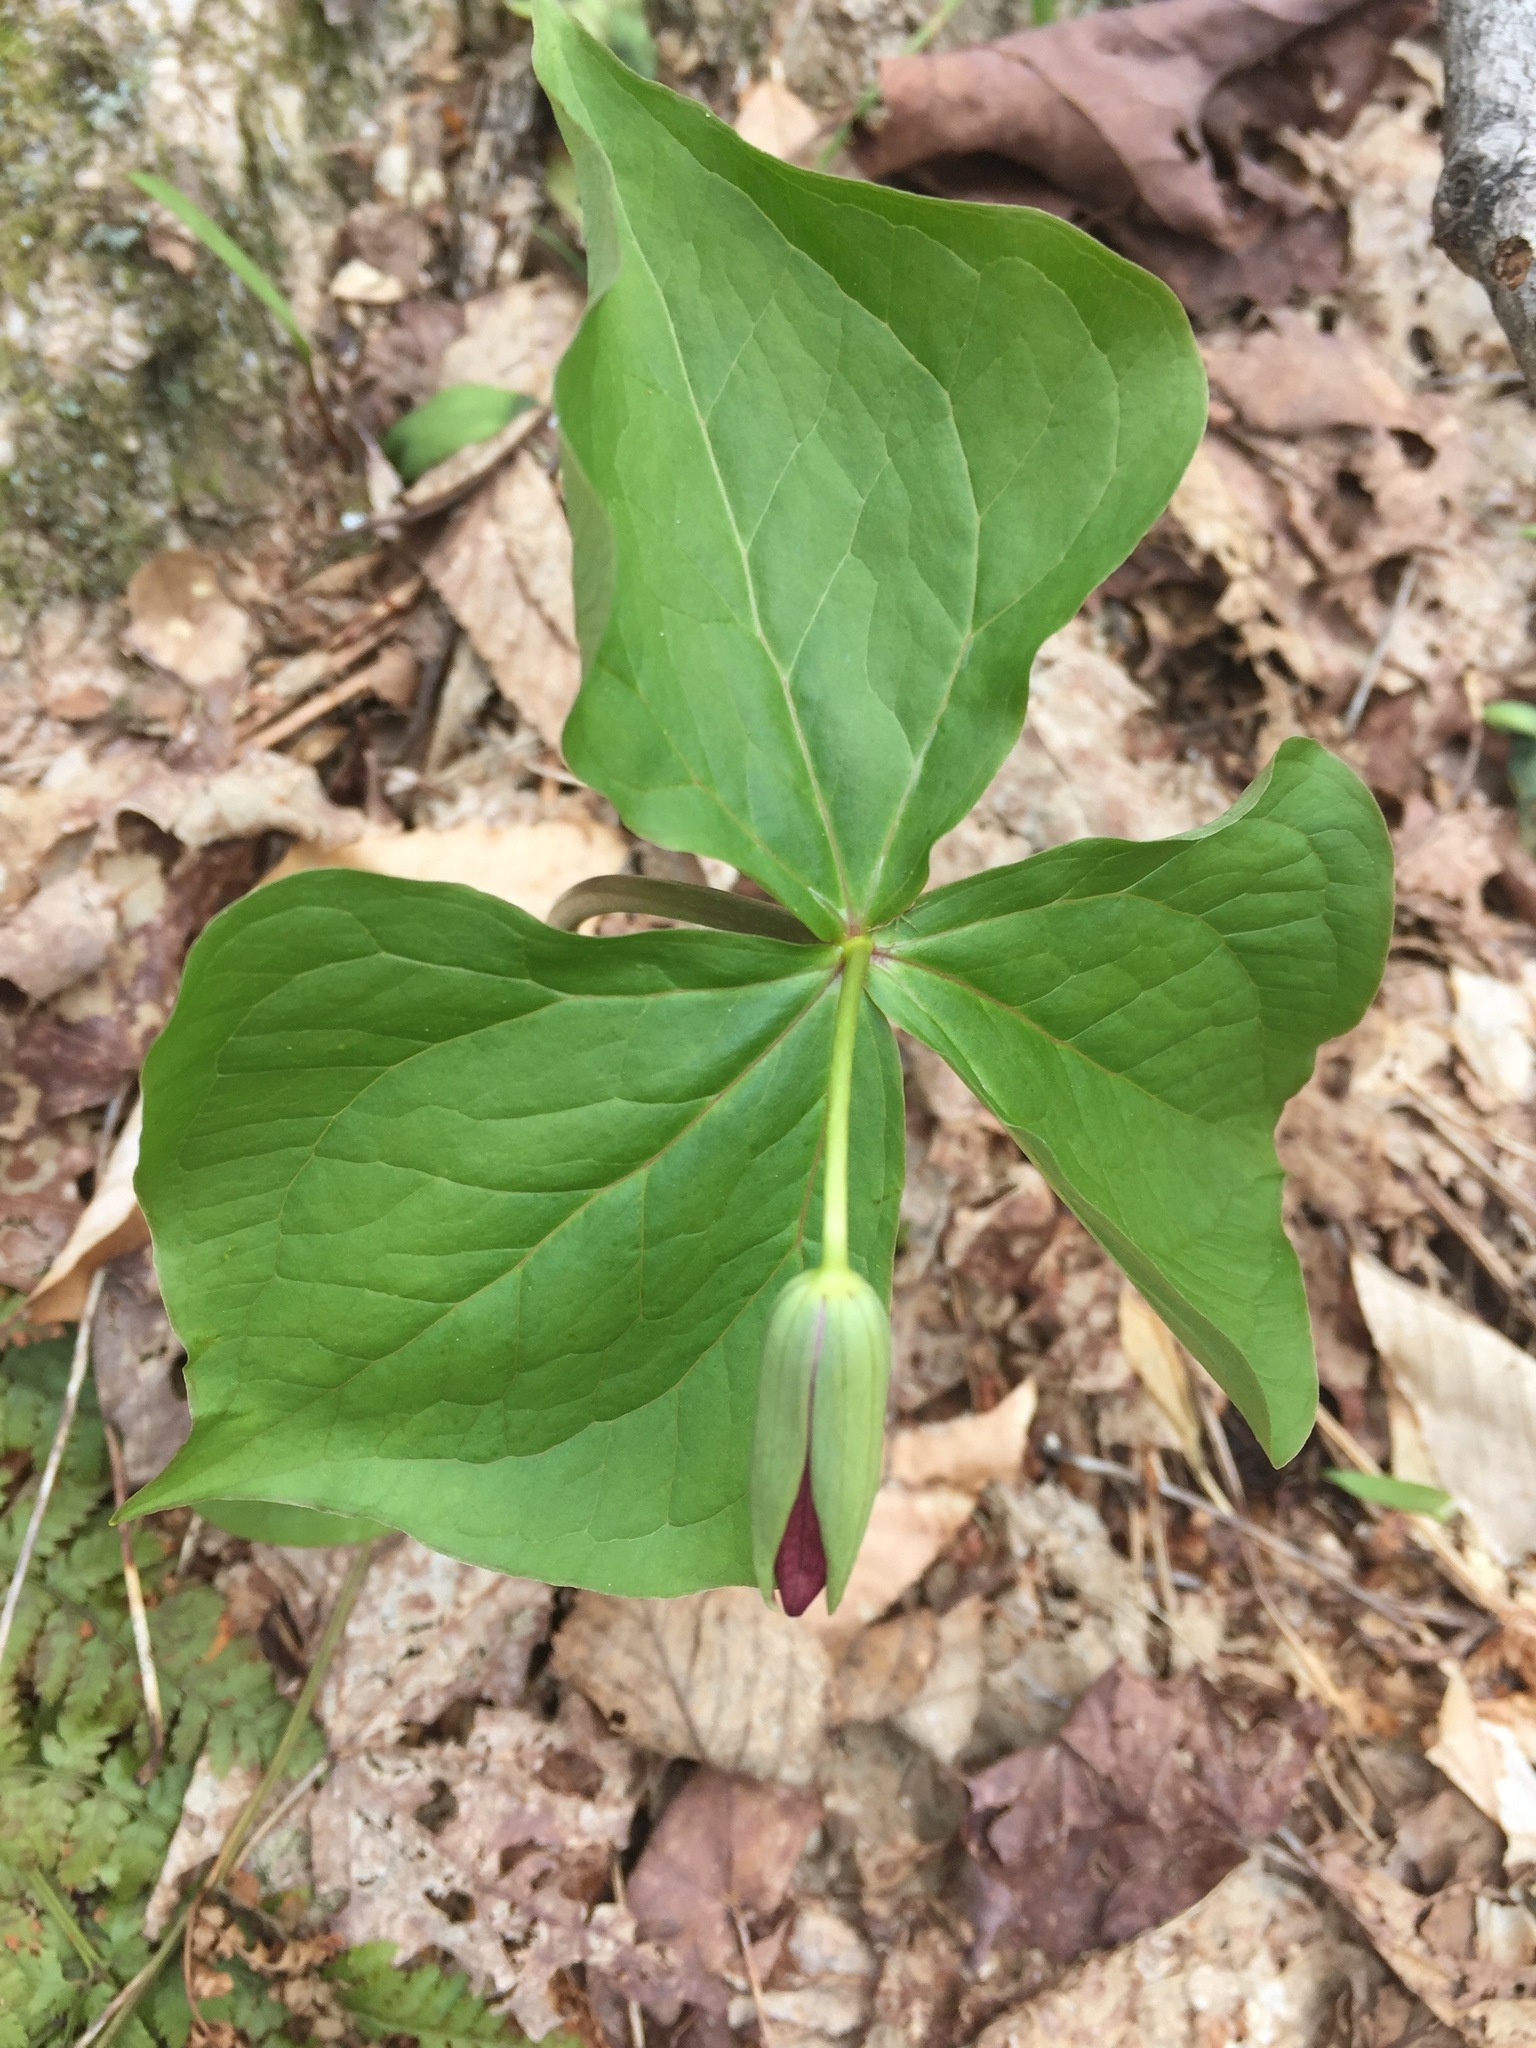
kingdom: Plantae
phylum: Tracheophyta
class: Liliopsida
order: Liliales
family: Melanthiaceae
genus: Trillium
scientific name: Trillium erectum
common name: Purple trillium
